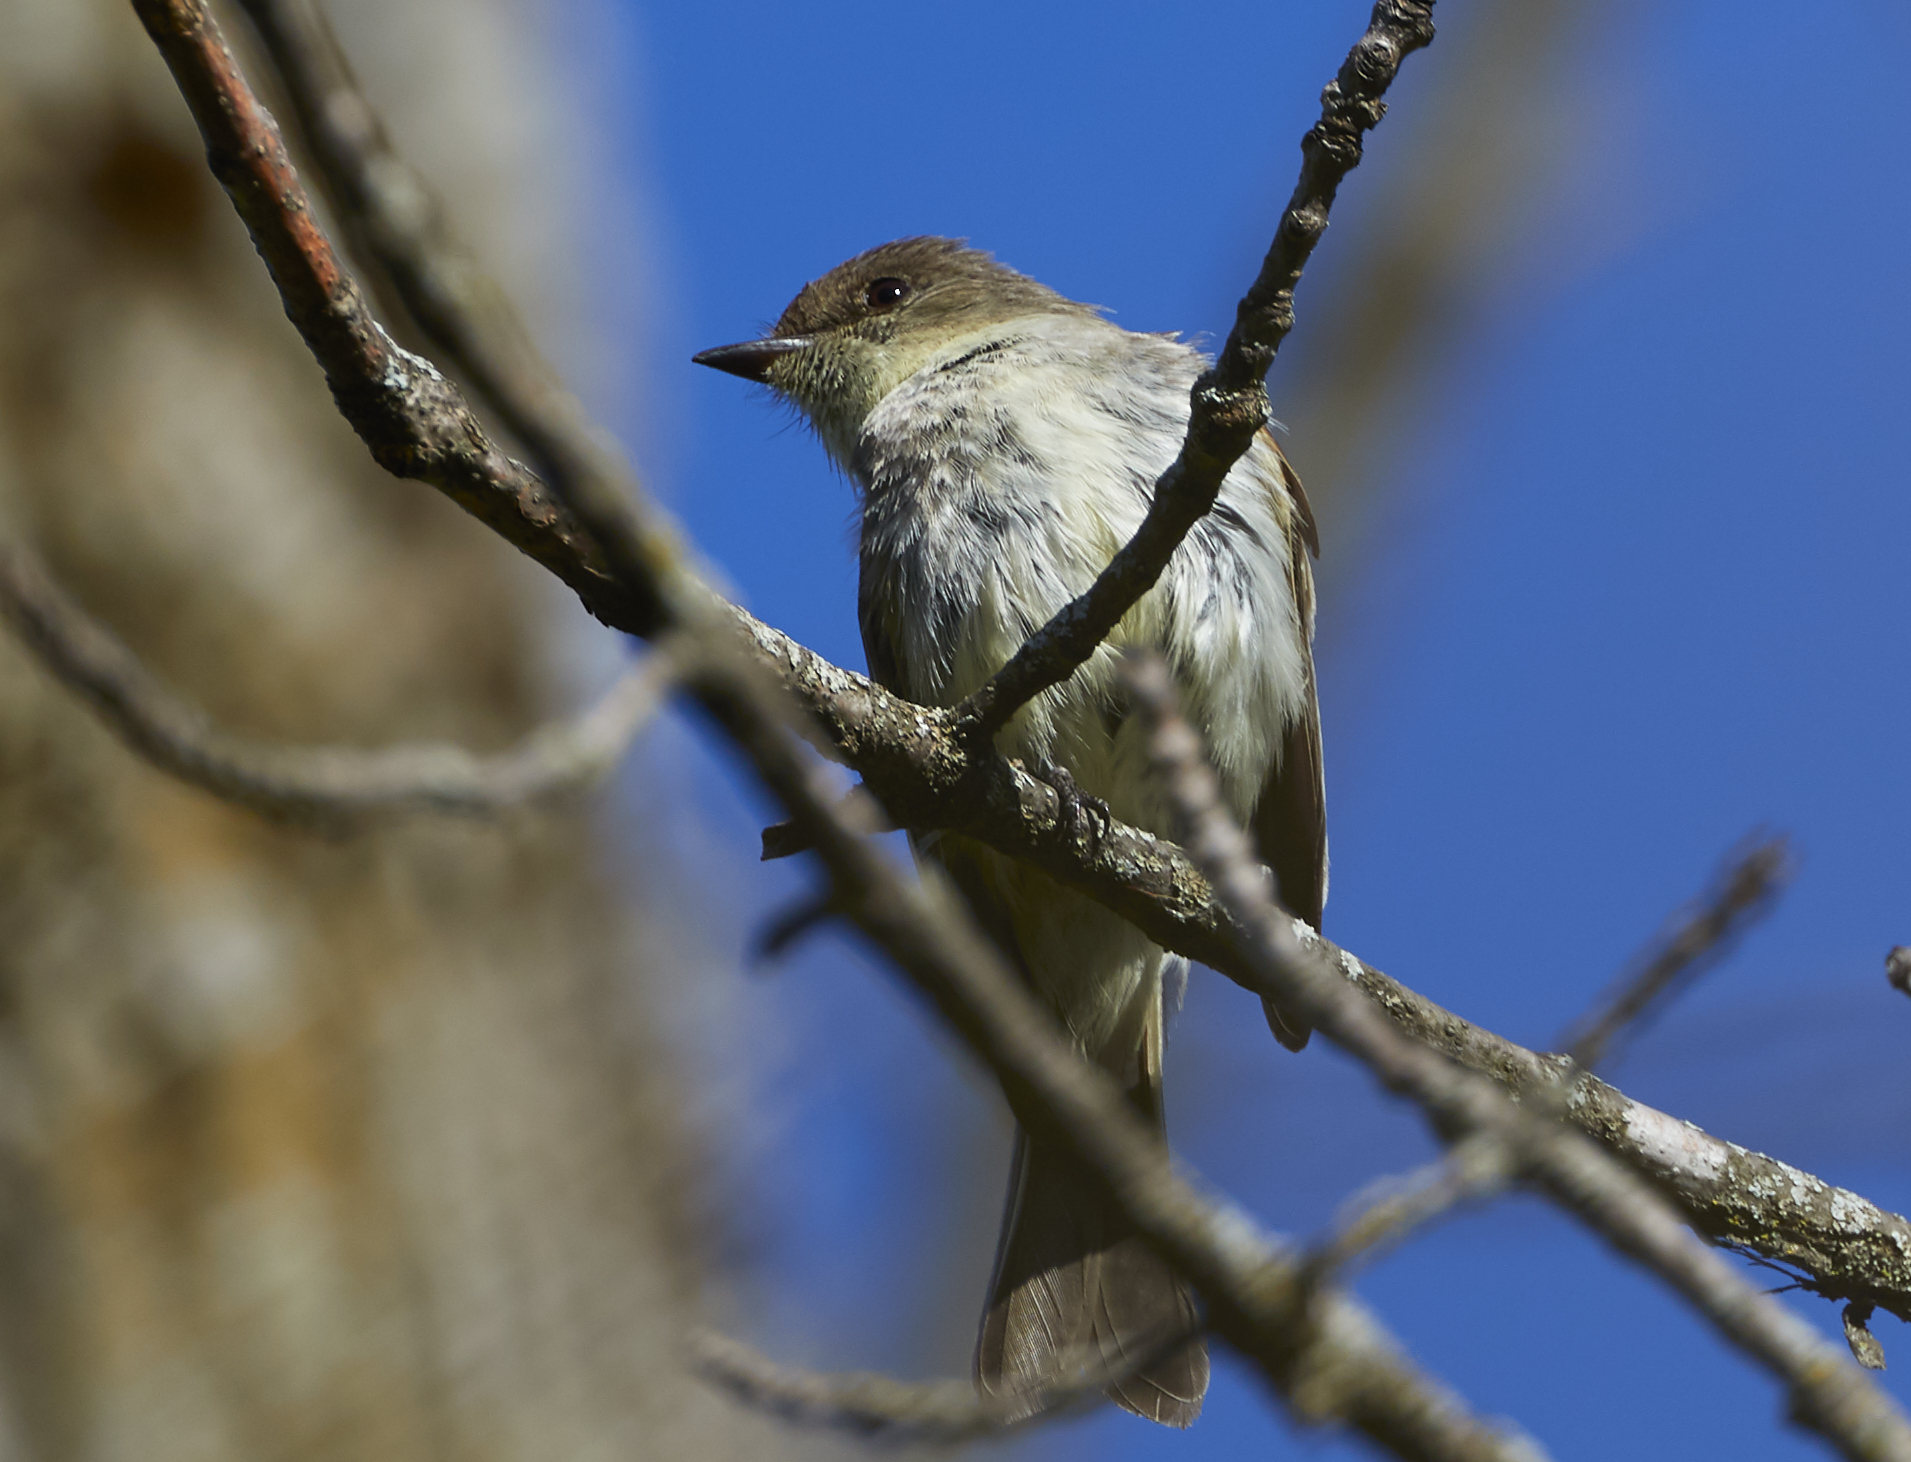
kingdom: Animalia
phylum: Chordata
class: Aves
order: Passeriformes
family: Tyrannidae
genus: Sayornis
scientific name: Sayornis phoebe
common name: Eastern phoebe
